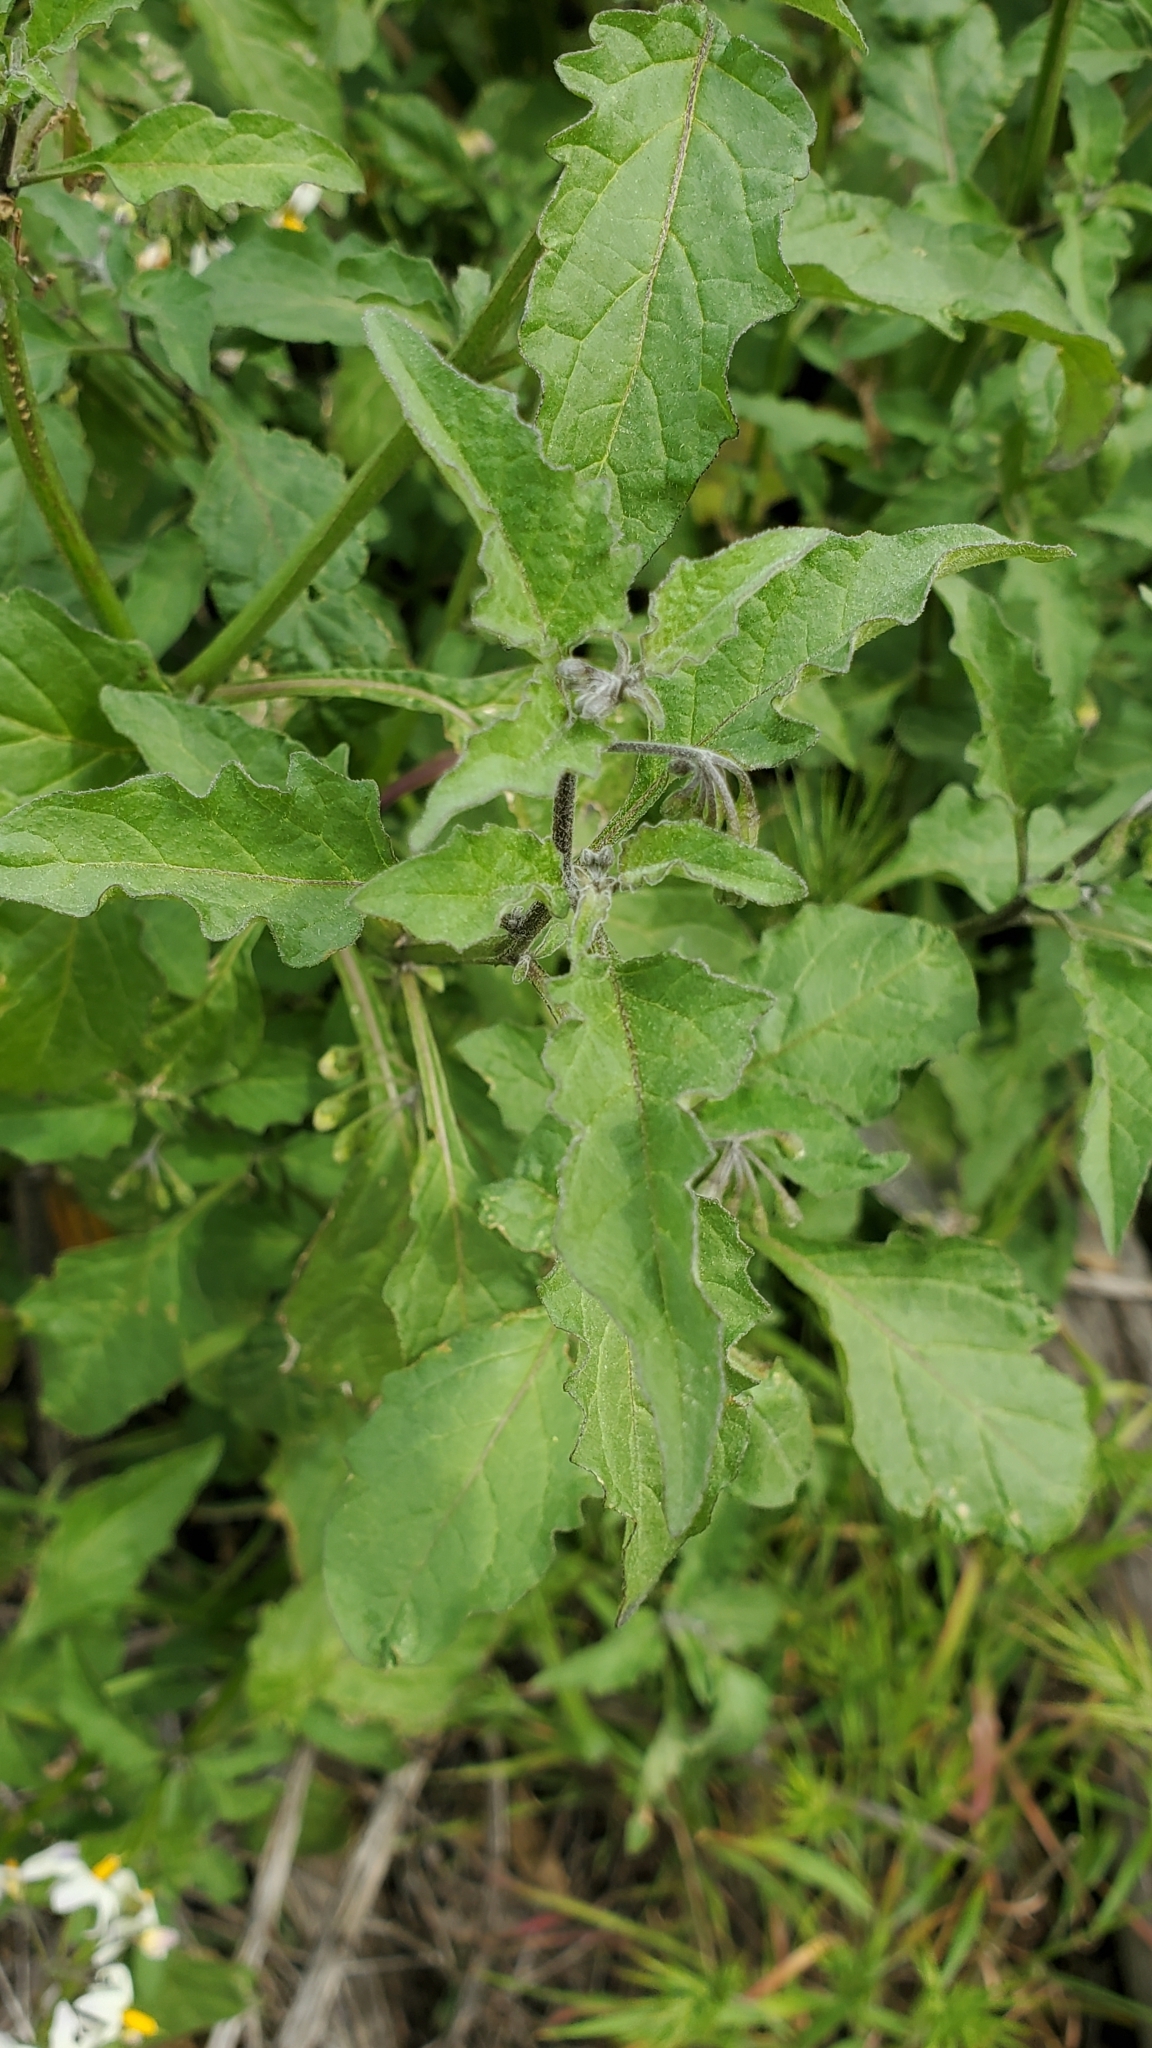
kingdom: Plantae
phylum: Tracheophyta
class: Magnoliopsida
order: Solanales
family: Solanaceae
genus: Solanum
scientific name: Solanum douglasii
